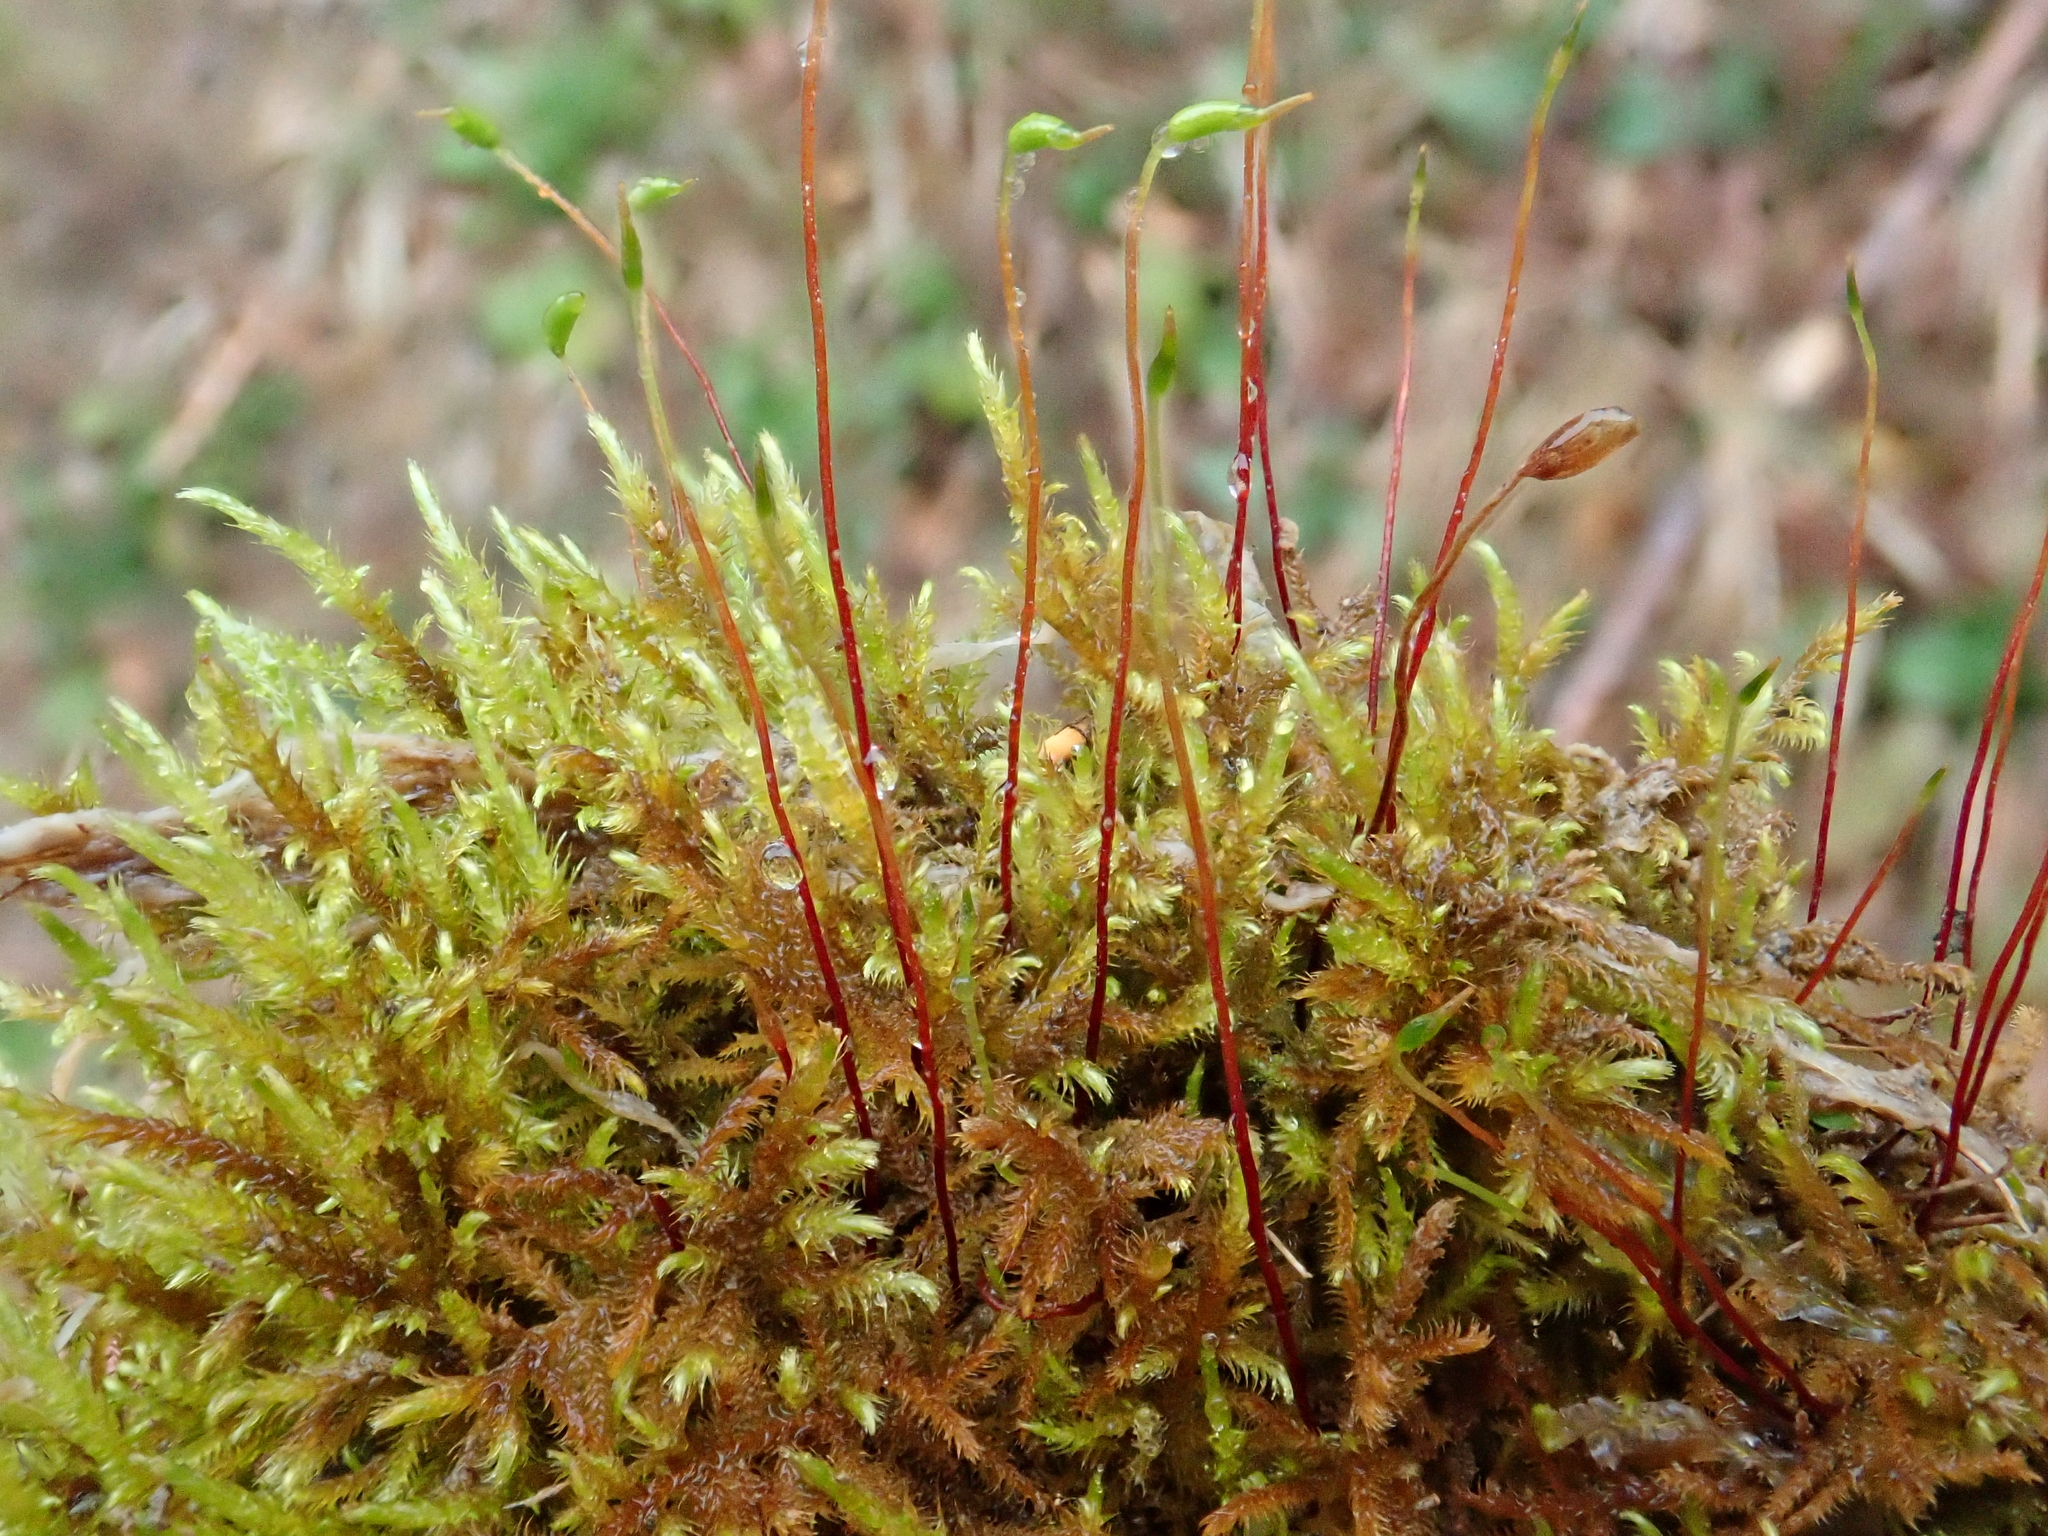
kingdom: Plantae
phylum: Bryophyta
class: Bryopsida
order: Hypnales
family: Amblystegiaceae
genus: Cratoneuron
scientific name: Cratoneuron filicinum
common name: Fern-leaved hook moss
